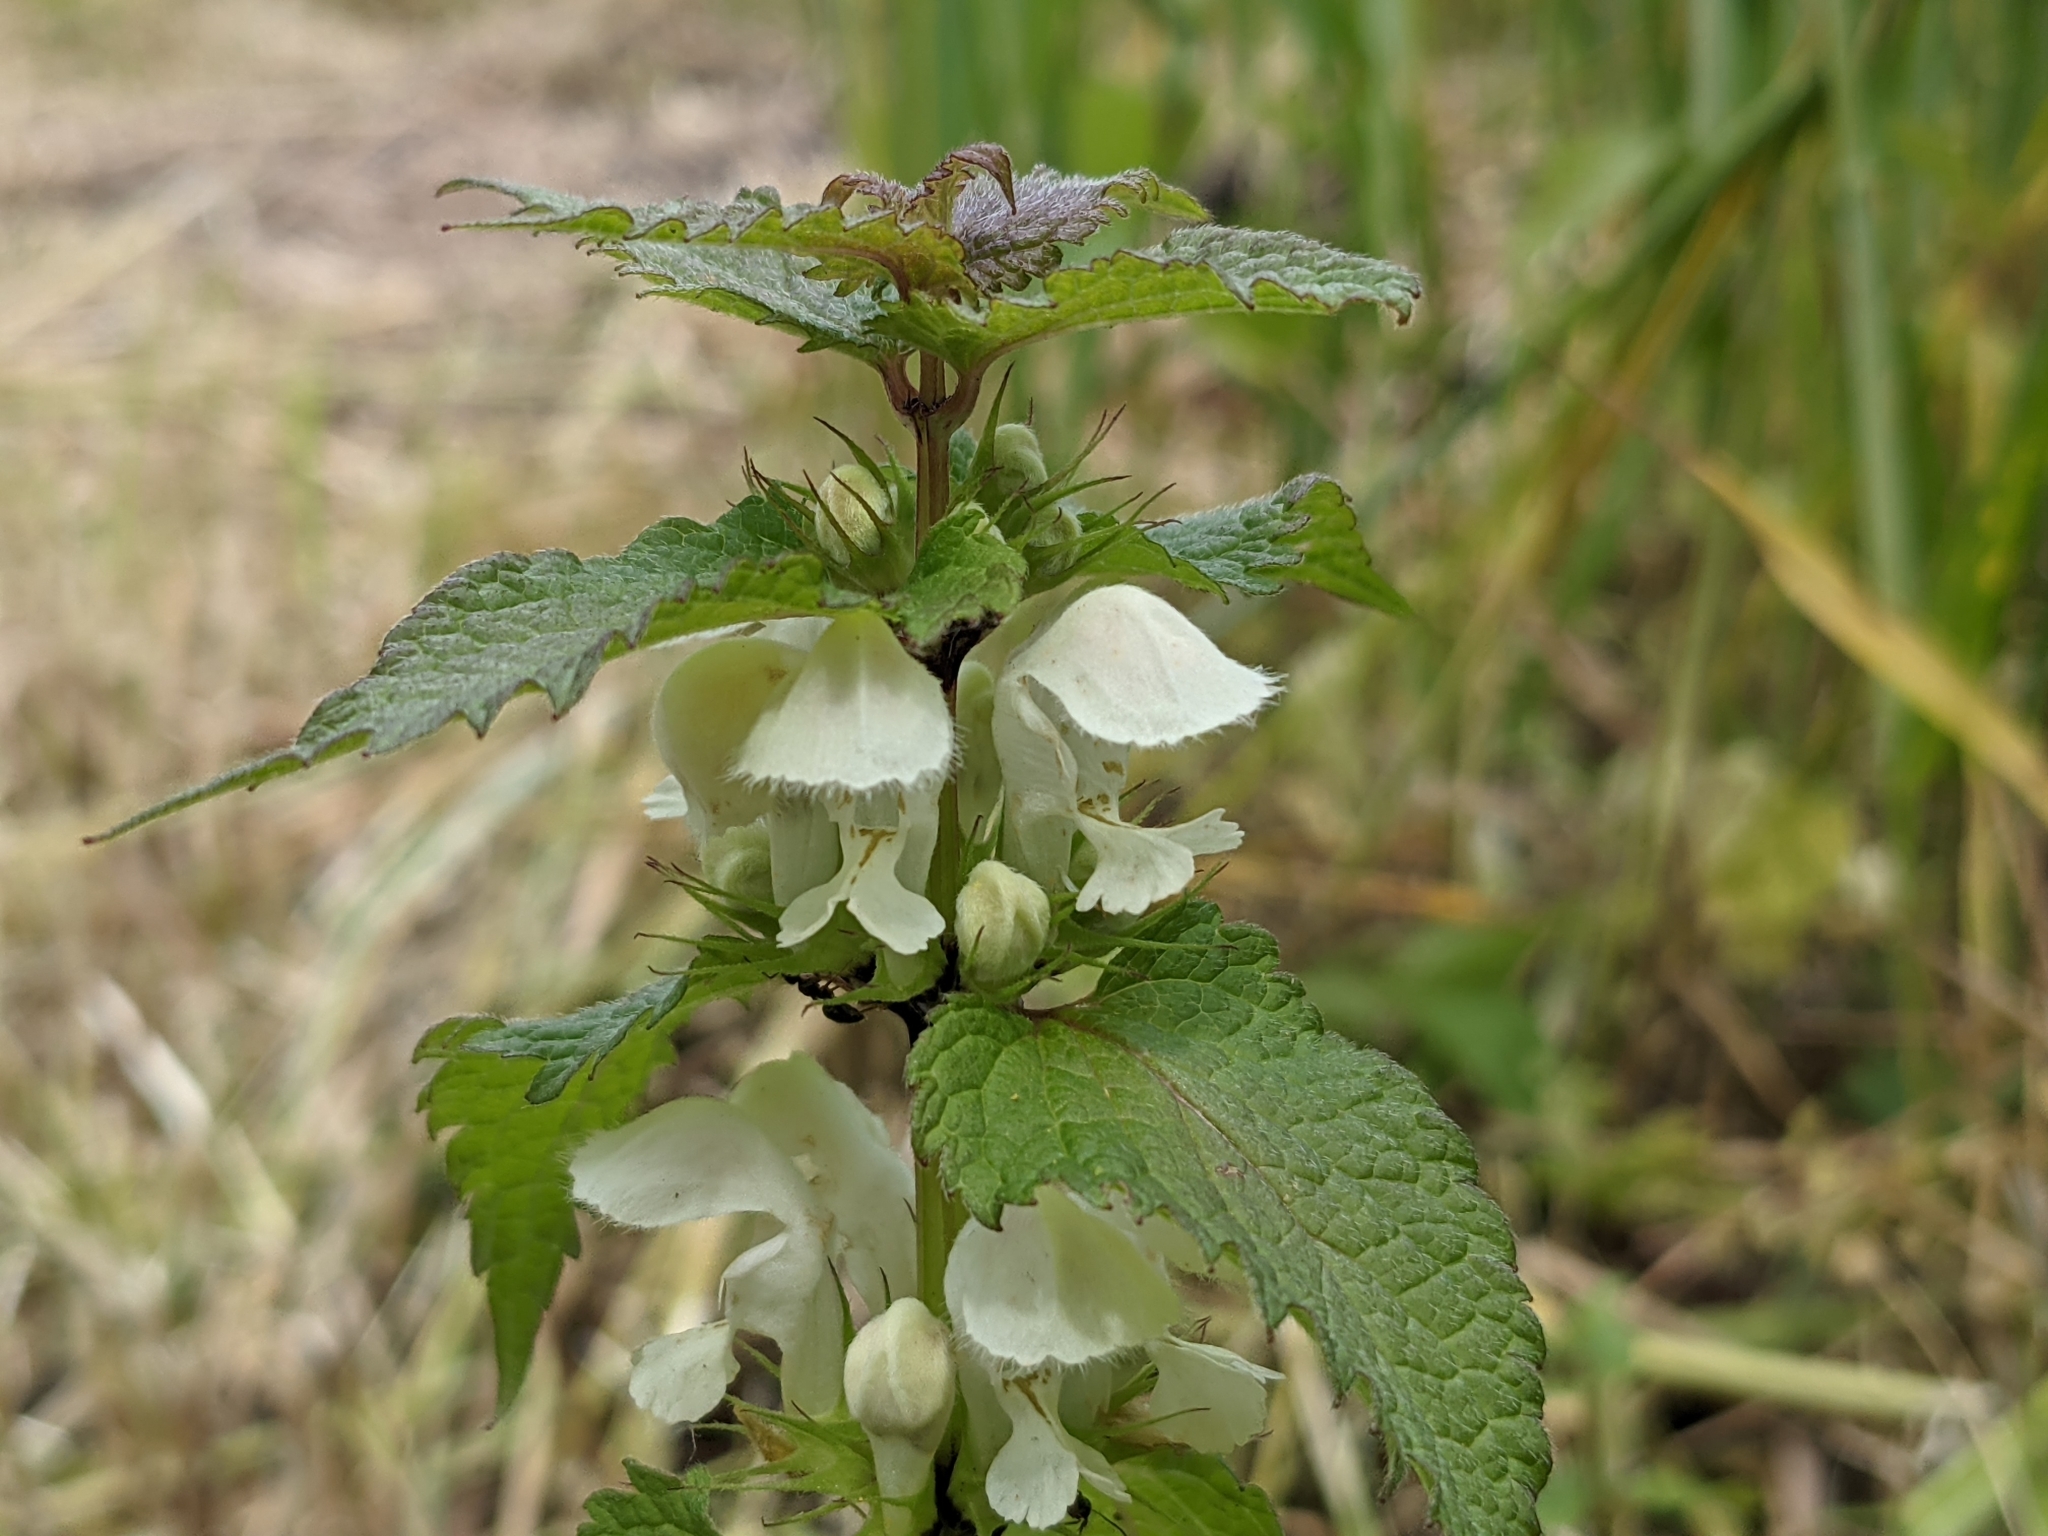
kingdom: Plantae
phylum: Tracheophyta
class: Magnoliopsida
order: Lamiales
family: Lamiaceae
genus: Lamium
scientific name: Lamium album
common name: White dead-nettle
